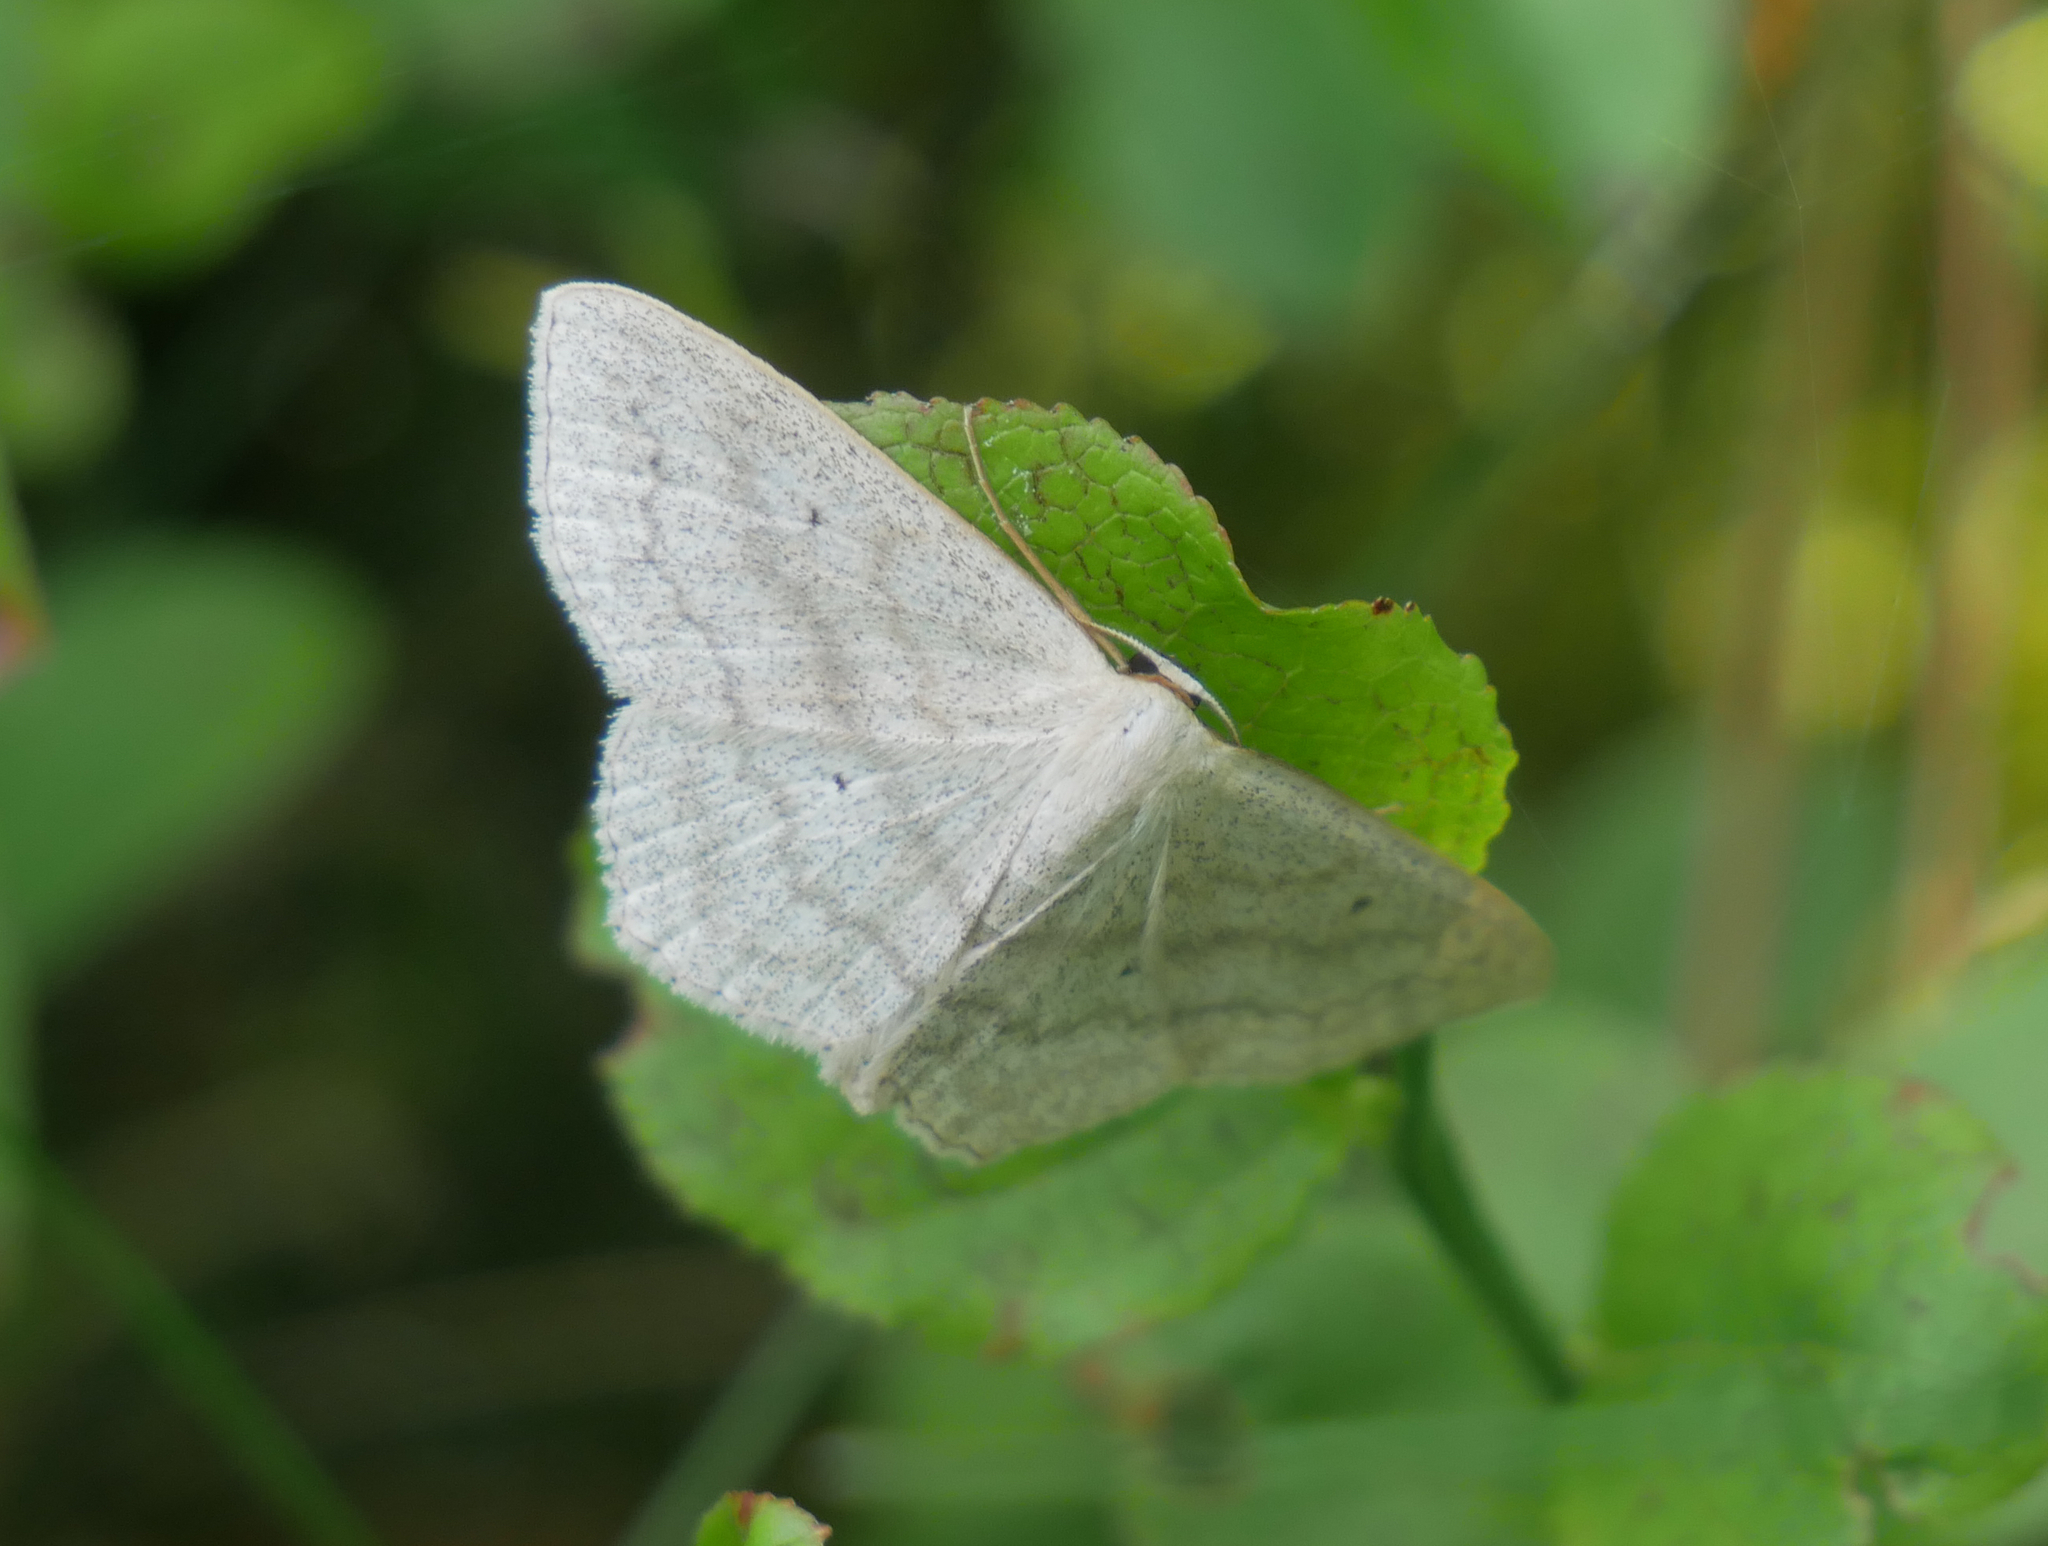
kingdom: Animalia
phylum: Arthropoda
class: Insecta
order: Lepidoptera
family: Geometridae
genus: Scopula
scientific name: Scopula nigropunctata
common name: Sub-angled wave
